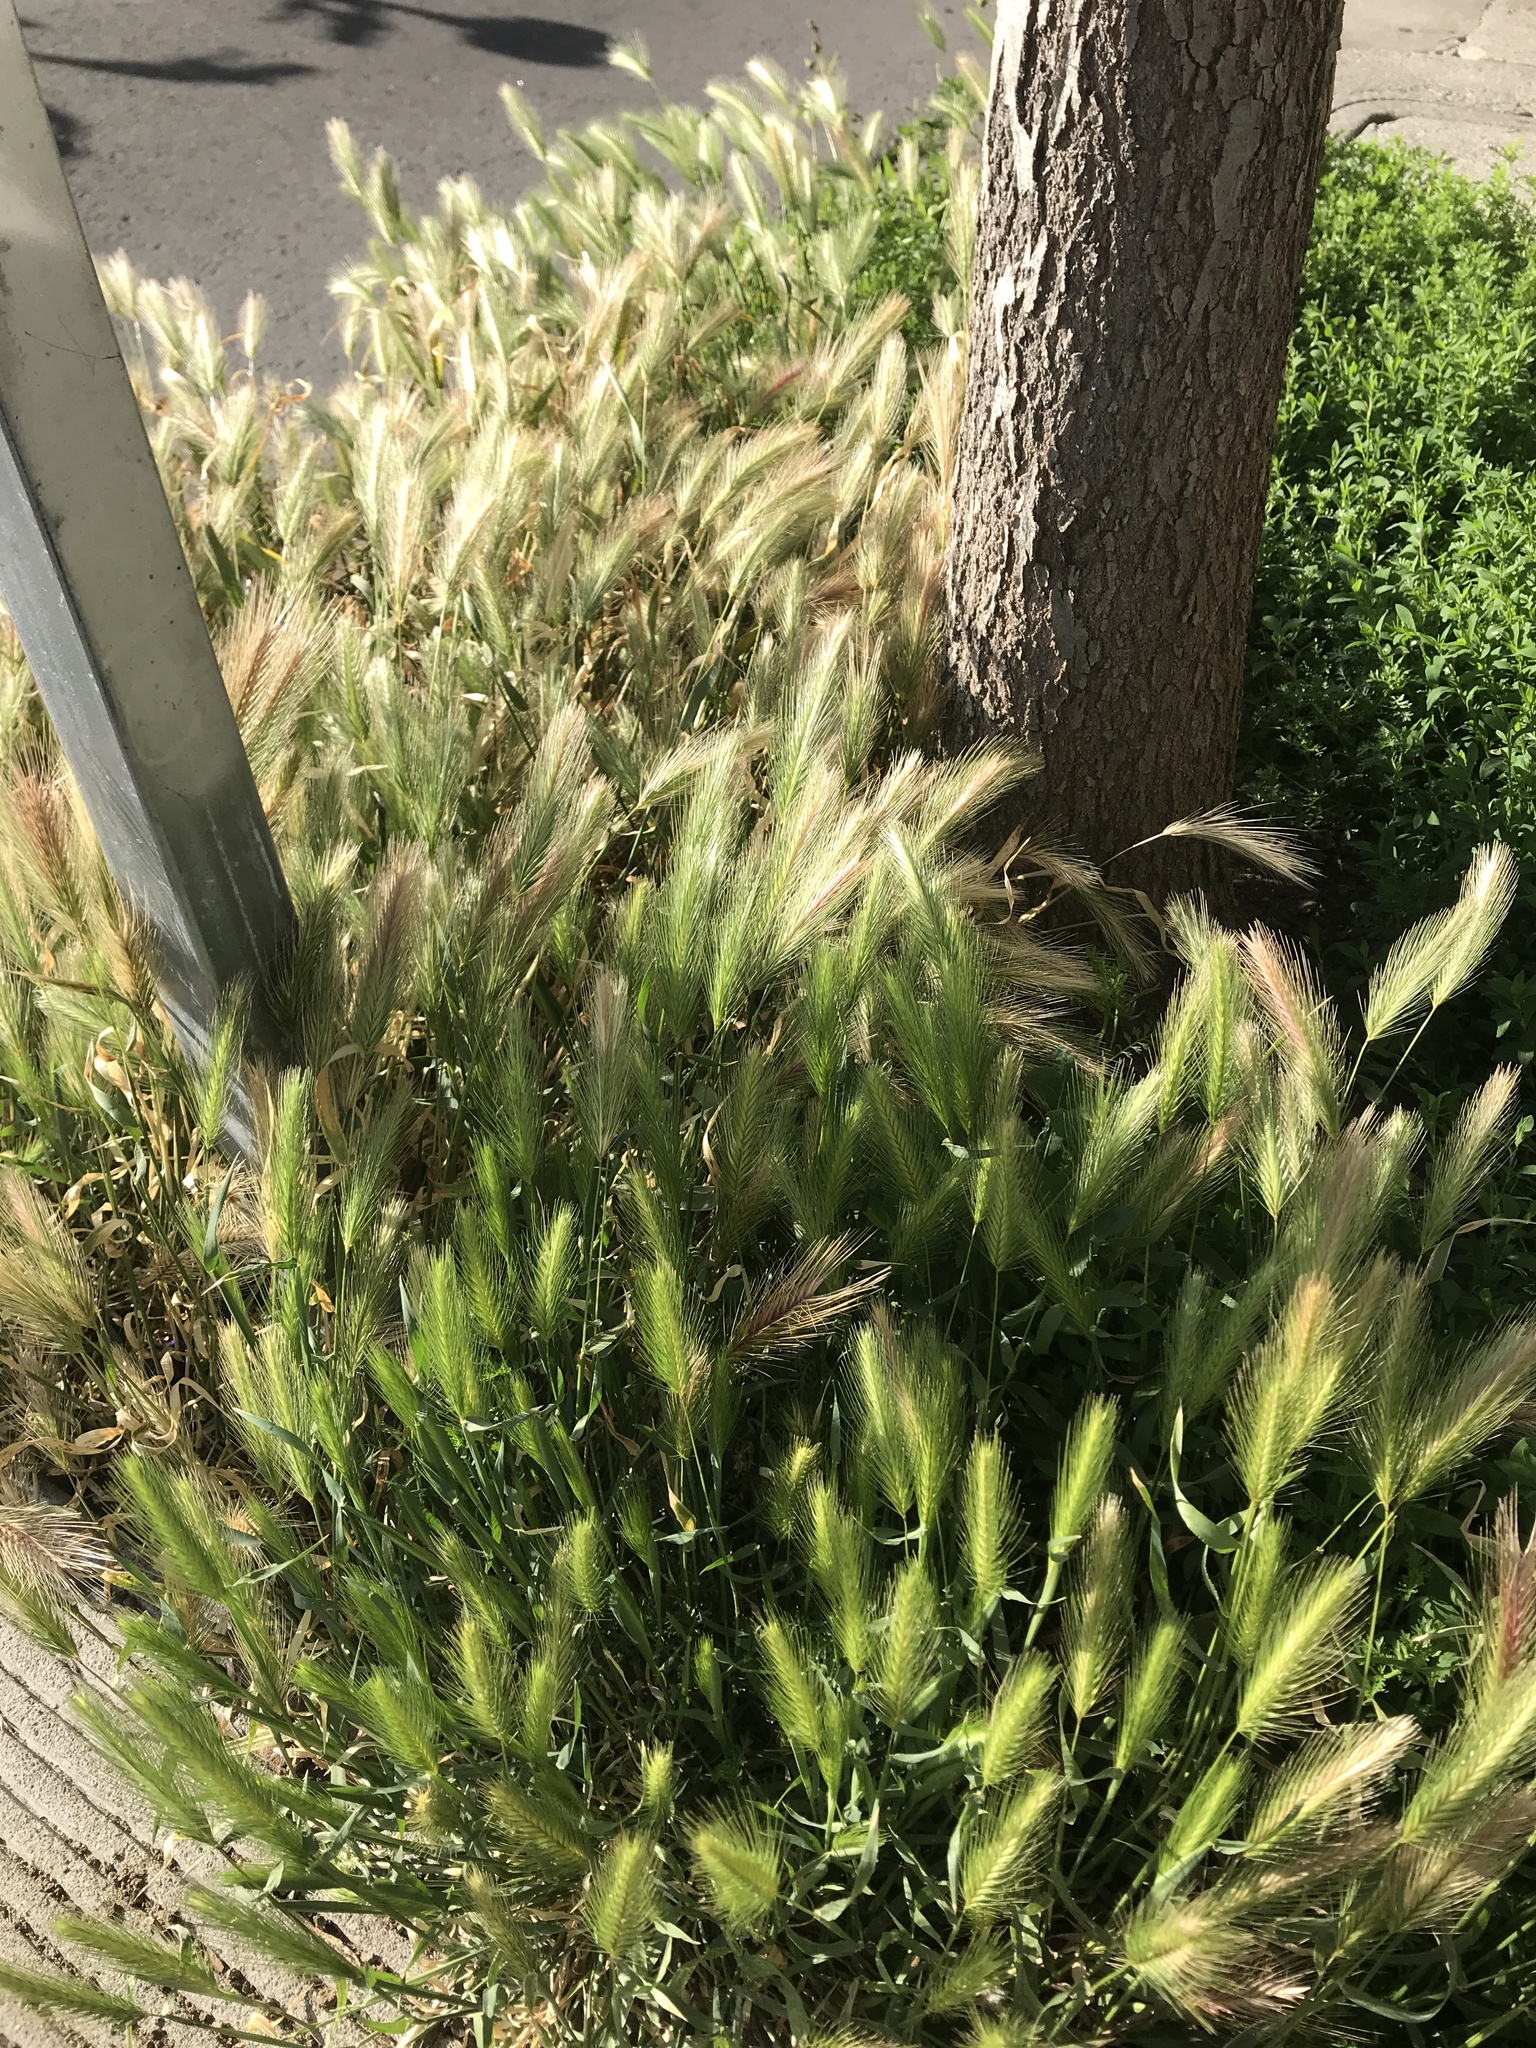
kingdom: Plantae
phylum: Tracheophyta
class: Liliopsida
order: Poales
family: Poaceae
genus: Hordeum
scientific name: Hordeum murinum
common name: Wall barley
